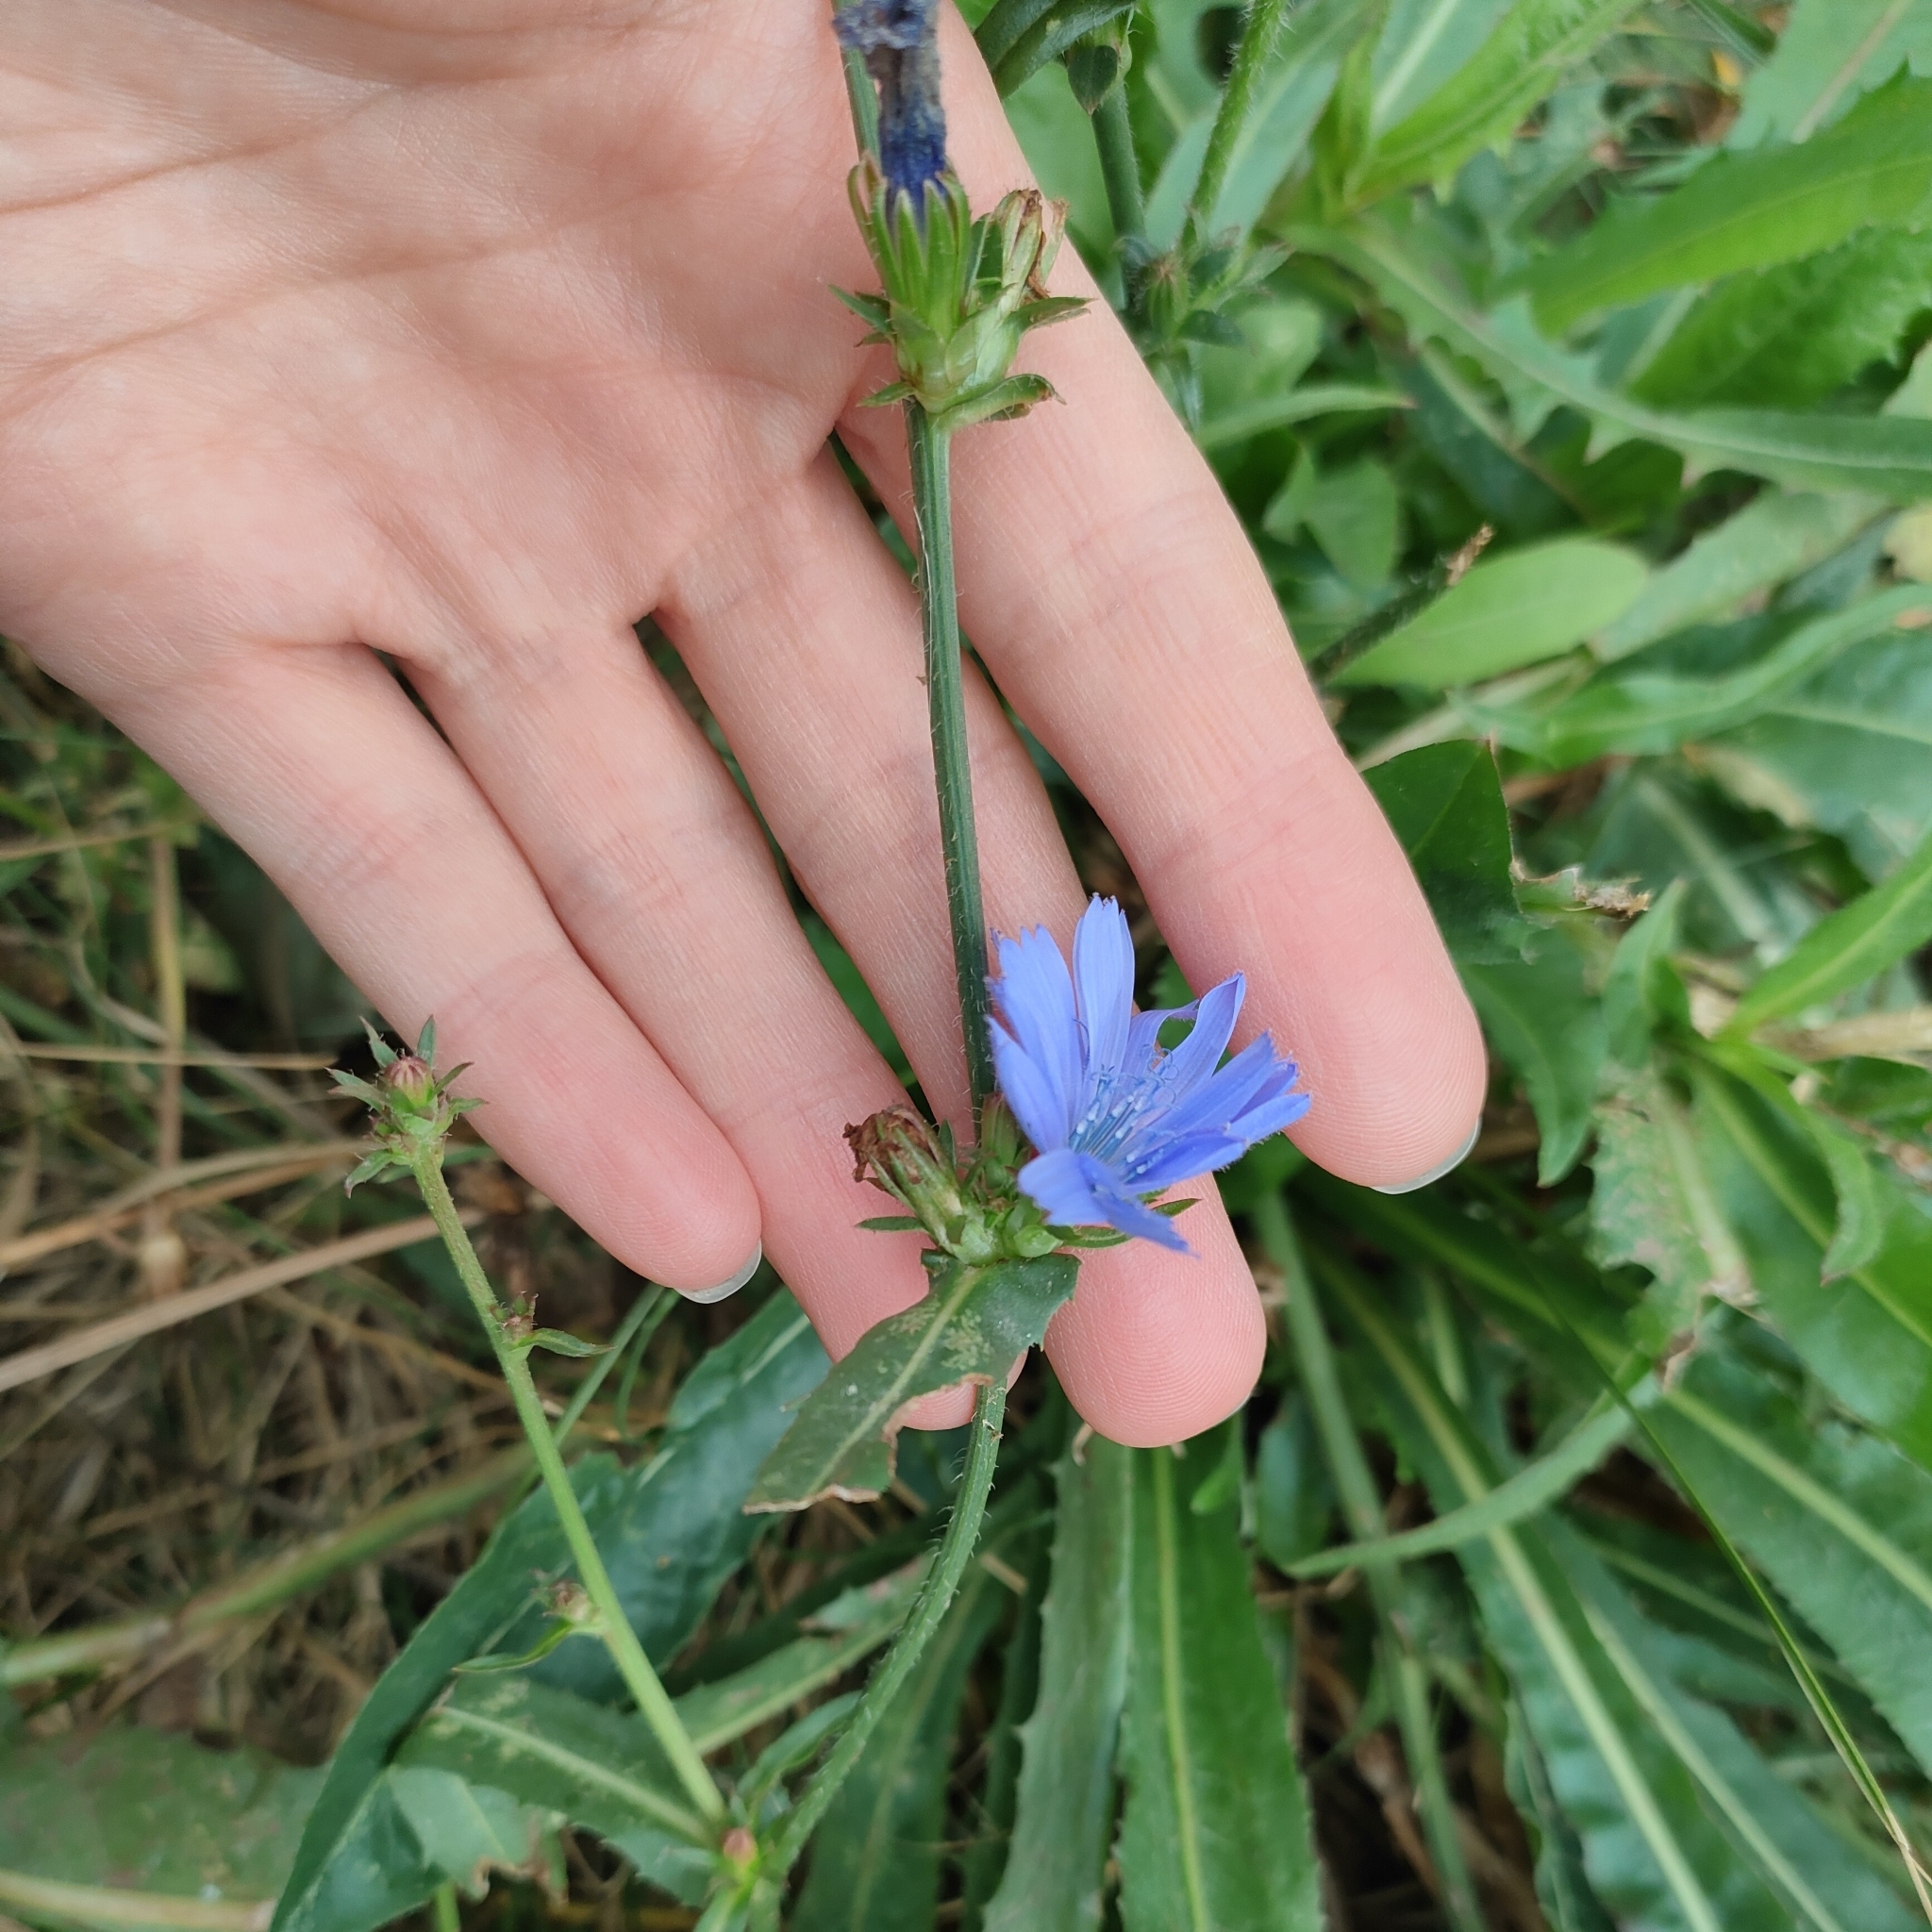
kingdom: Plantae
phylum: Tracheophyta
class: Magnoliopsida
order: Asterales
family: Asteraceae
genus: Cichorium
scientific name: Cichorium intybus
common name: Chicory
